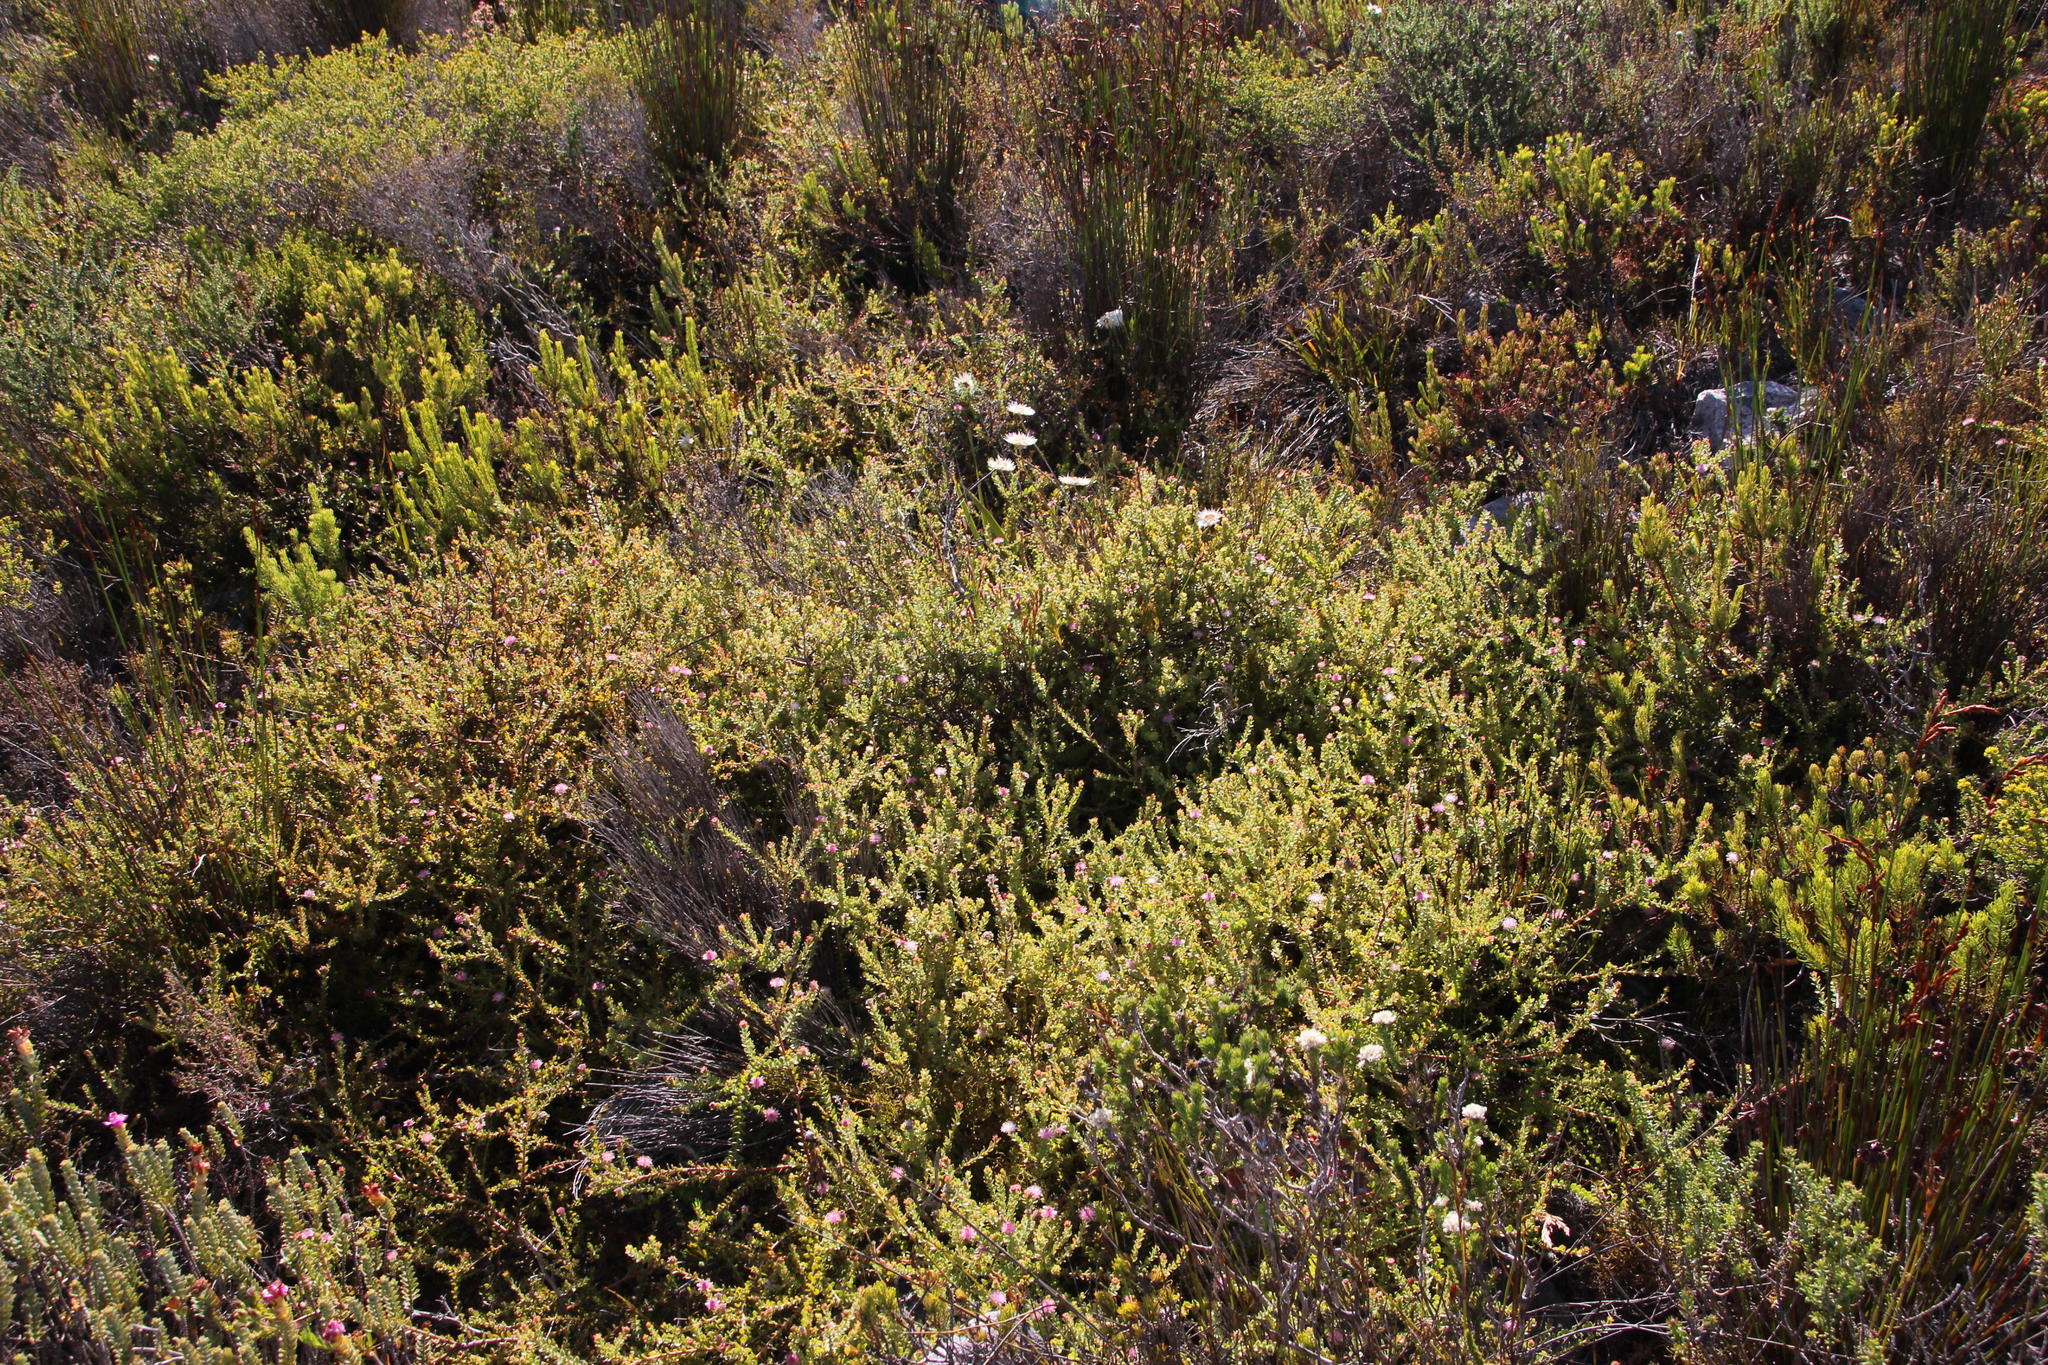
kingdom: Plantae
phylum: Tracheophyta
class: Magnoliopsida
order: Proteales
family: Proteaceae
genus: Diastella
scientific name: Diastella divaricata
